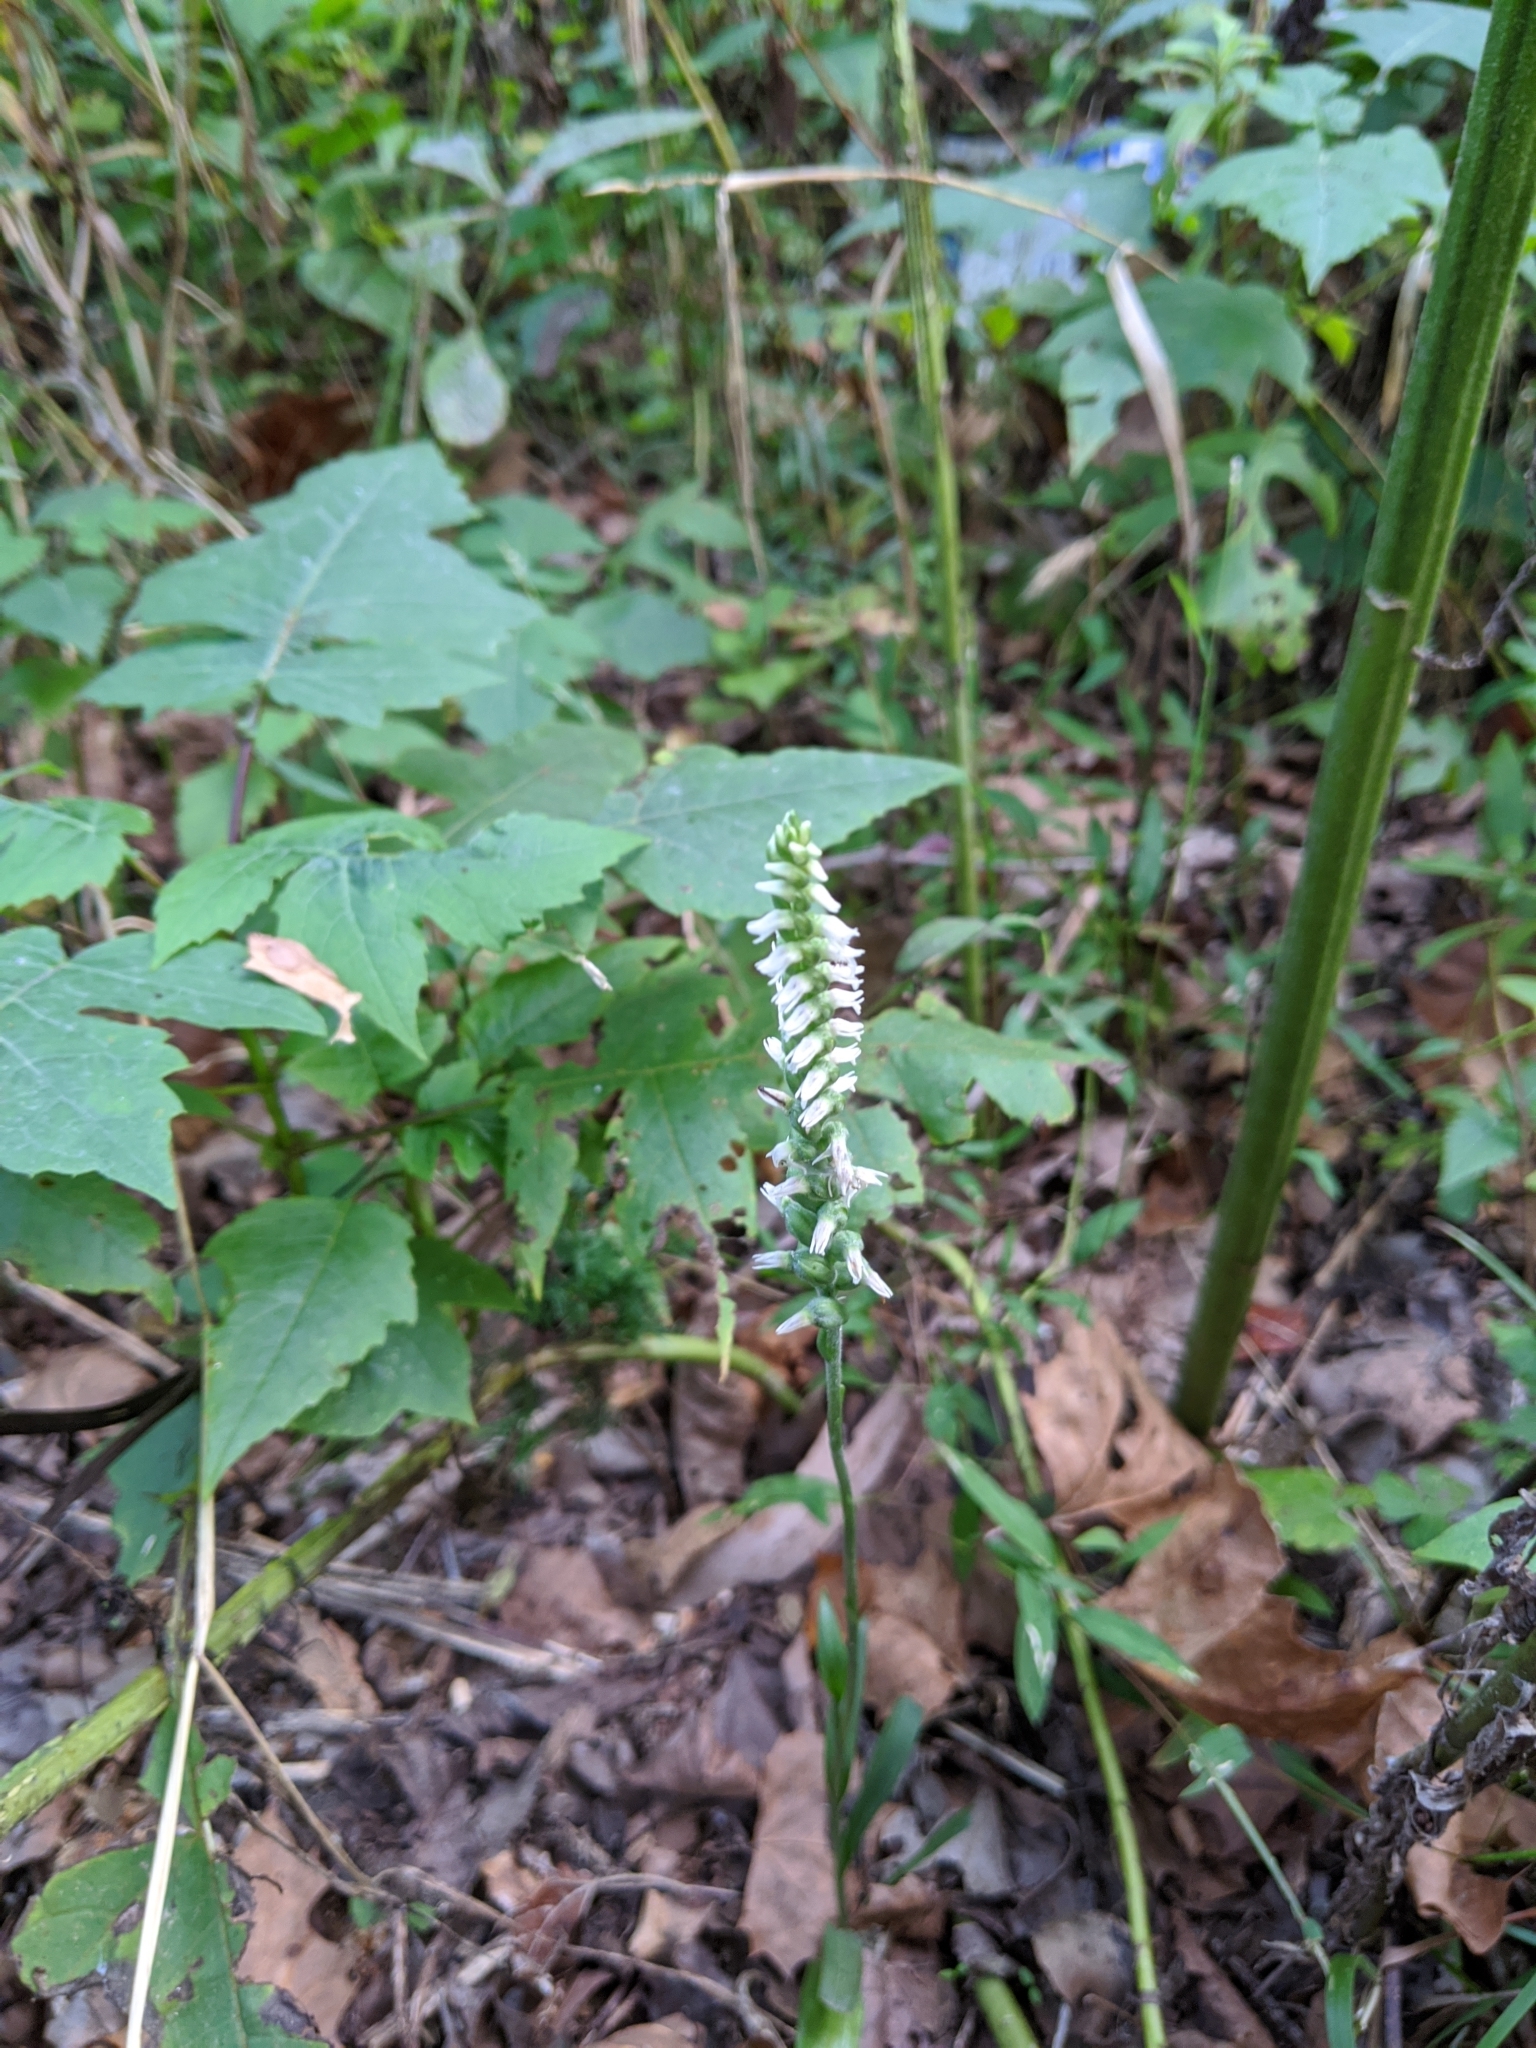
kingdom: Plantae
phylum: Tracheophyta
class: Liliopsida
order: Asparagales
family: Orchidaceae
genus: Spiranthes
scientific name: Spiranthes ovalis
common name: October ladies'-tresses
